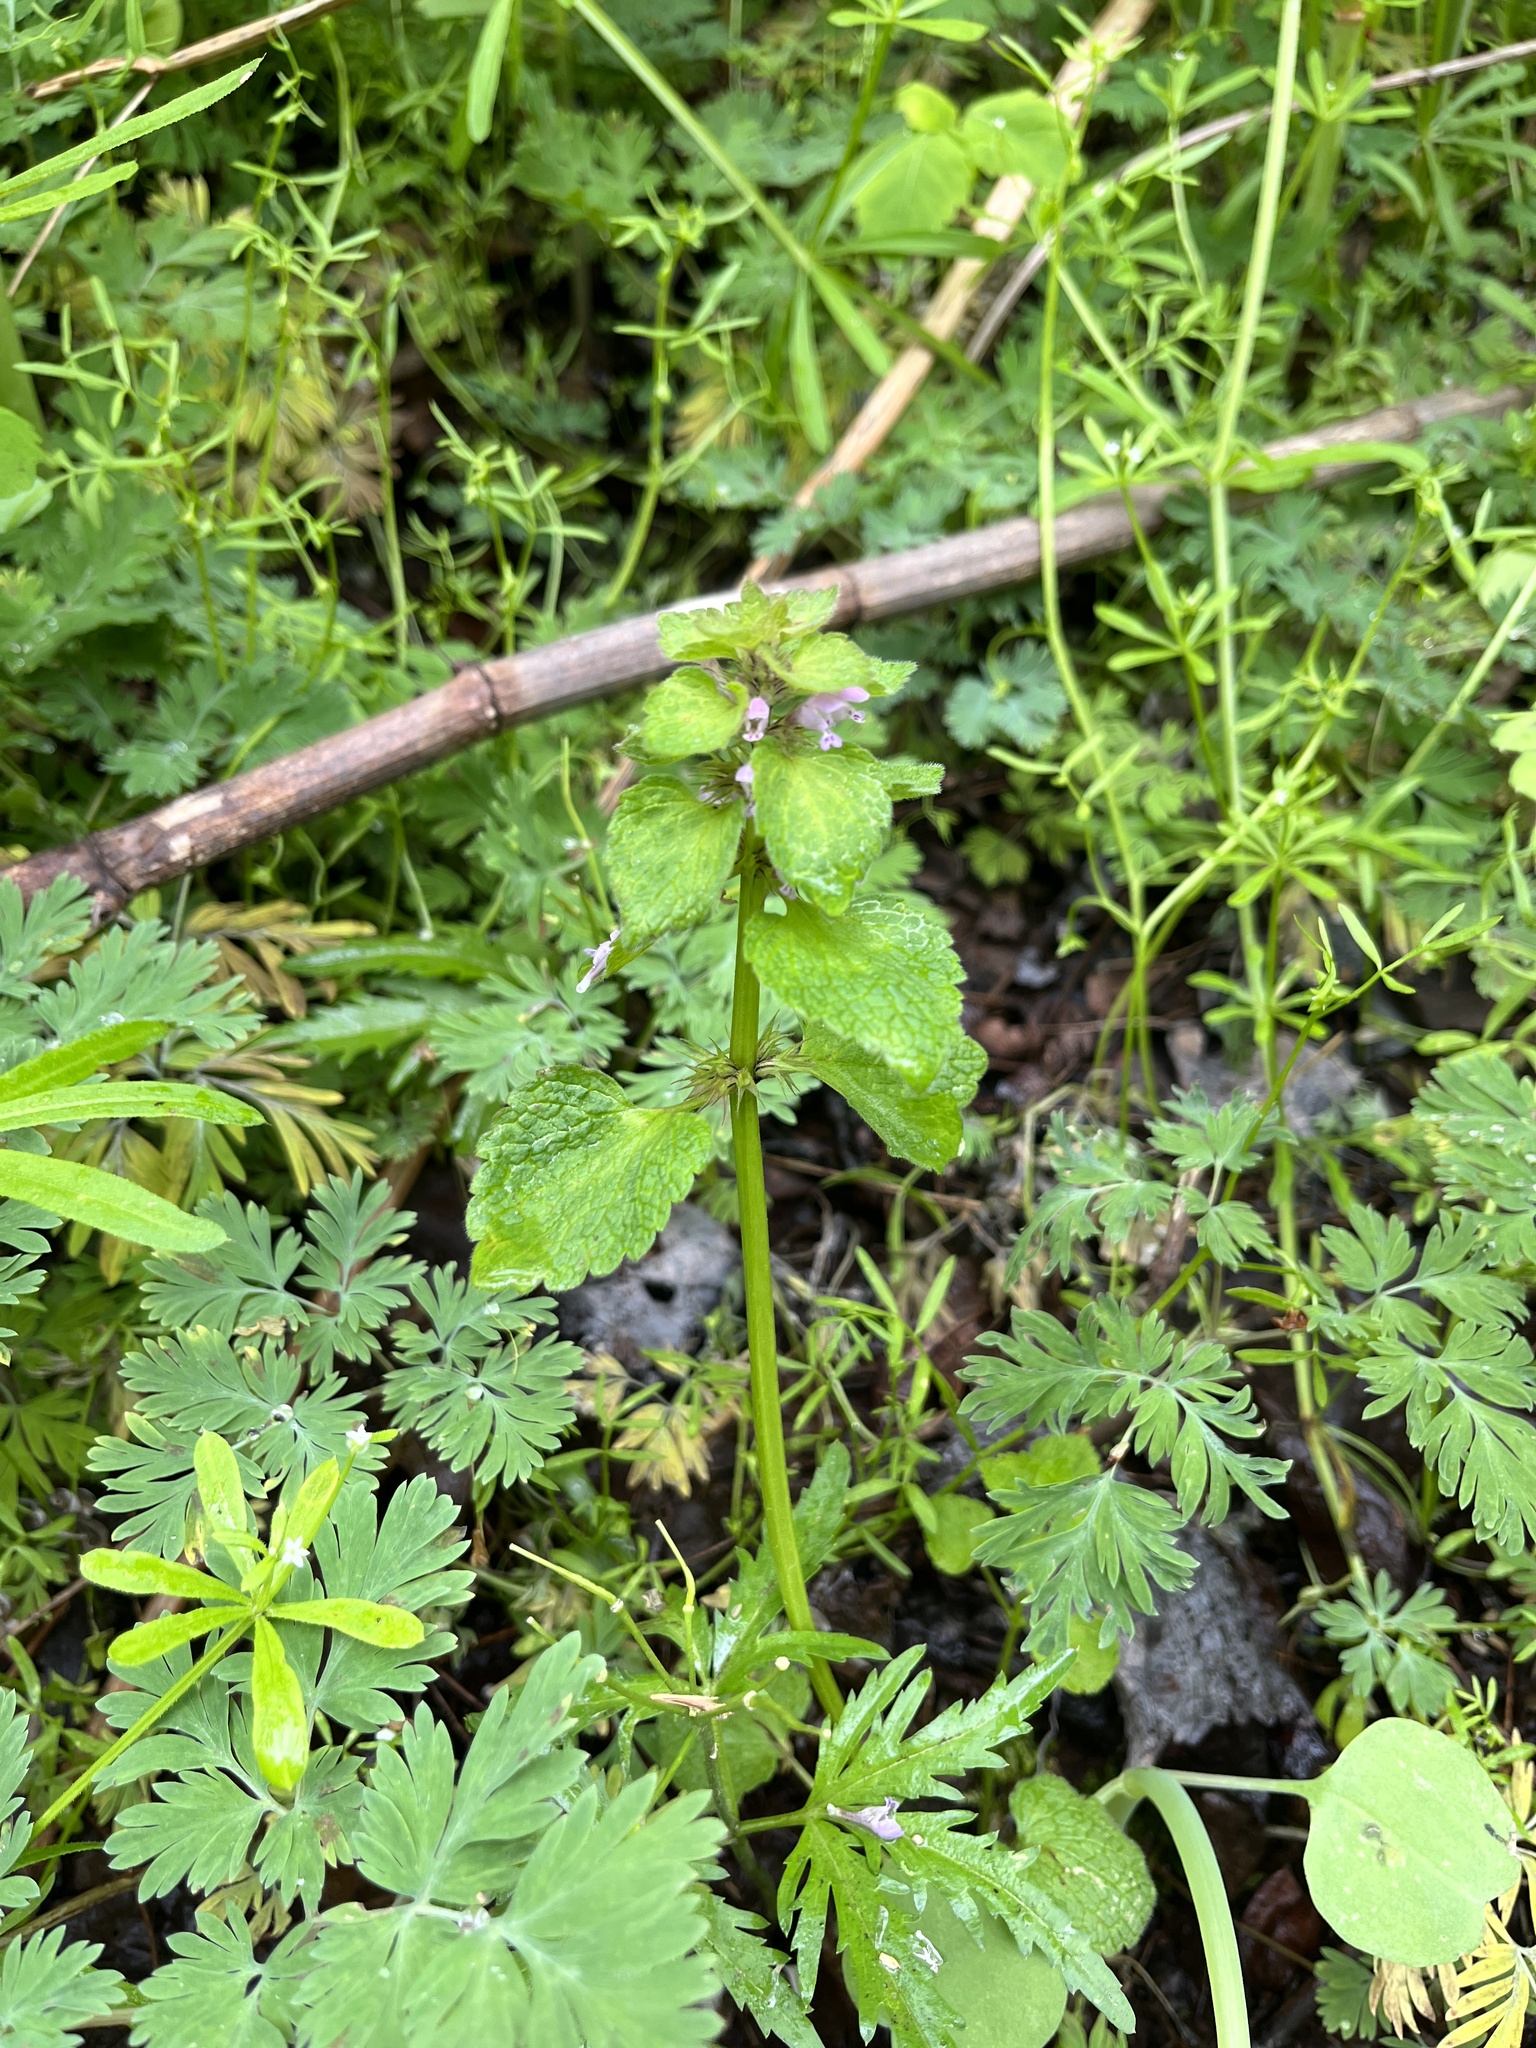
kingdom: Plantae
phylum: Tracheophyta
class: Magnoliopsida
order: Lamiales
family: Lamiaceae
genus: Lamium
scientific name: Lamium purpureum
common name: Red dead-nettle
